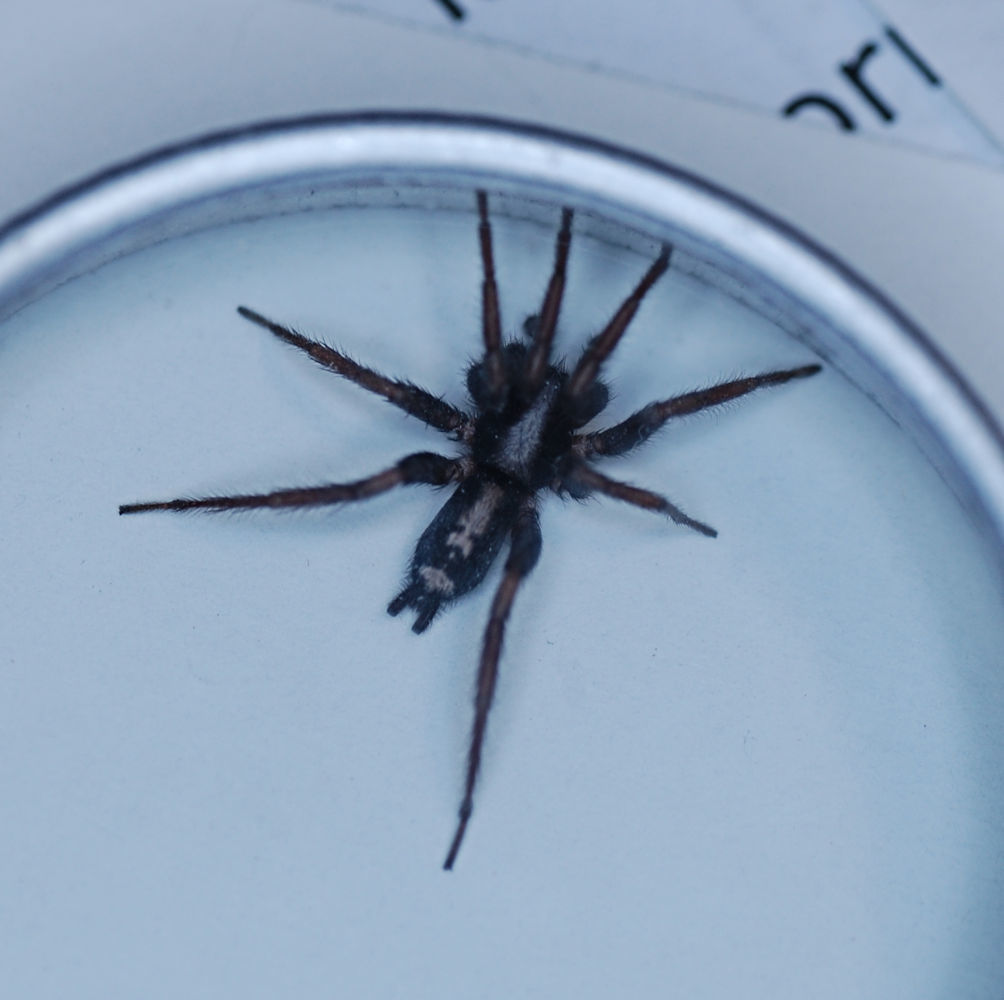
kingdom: Animalia
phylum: Arthropoda
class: Arachnida
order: Araneae
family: Gnaphosidae
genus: Herpyllus
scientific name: Herpyllus ecclesiasticus
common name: Eastern parson spider
